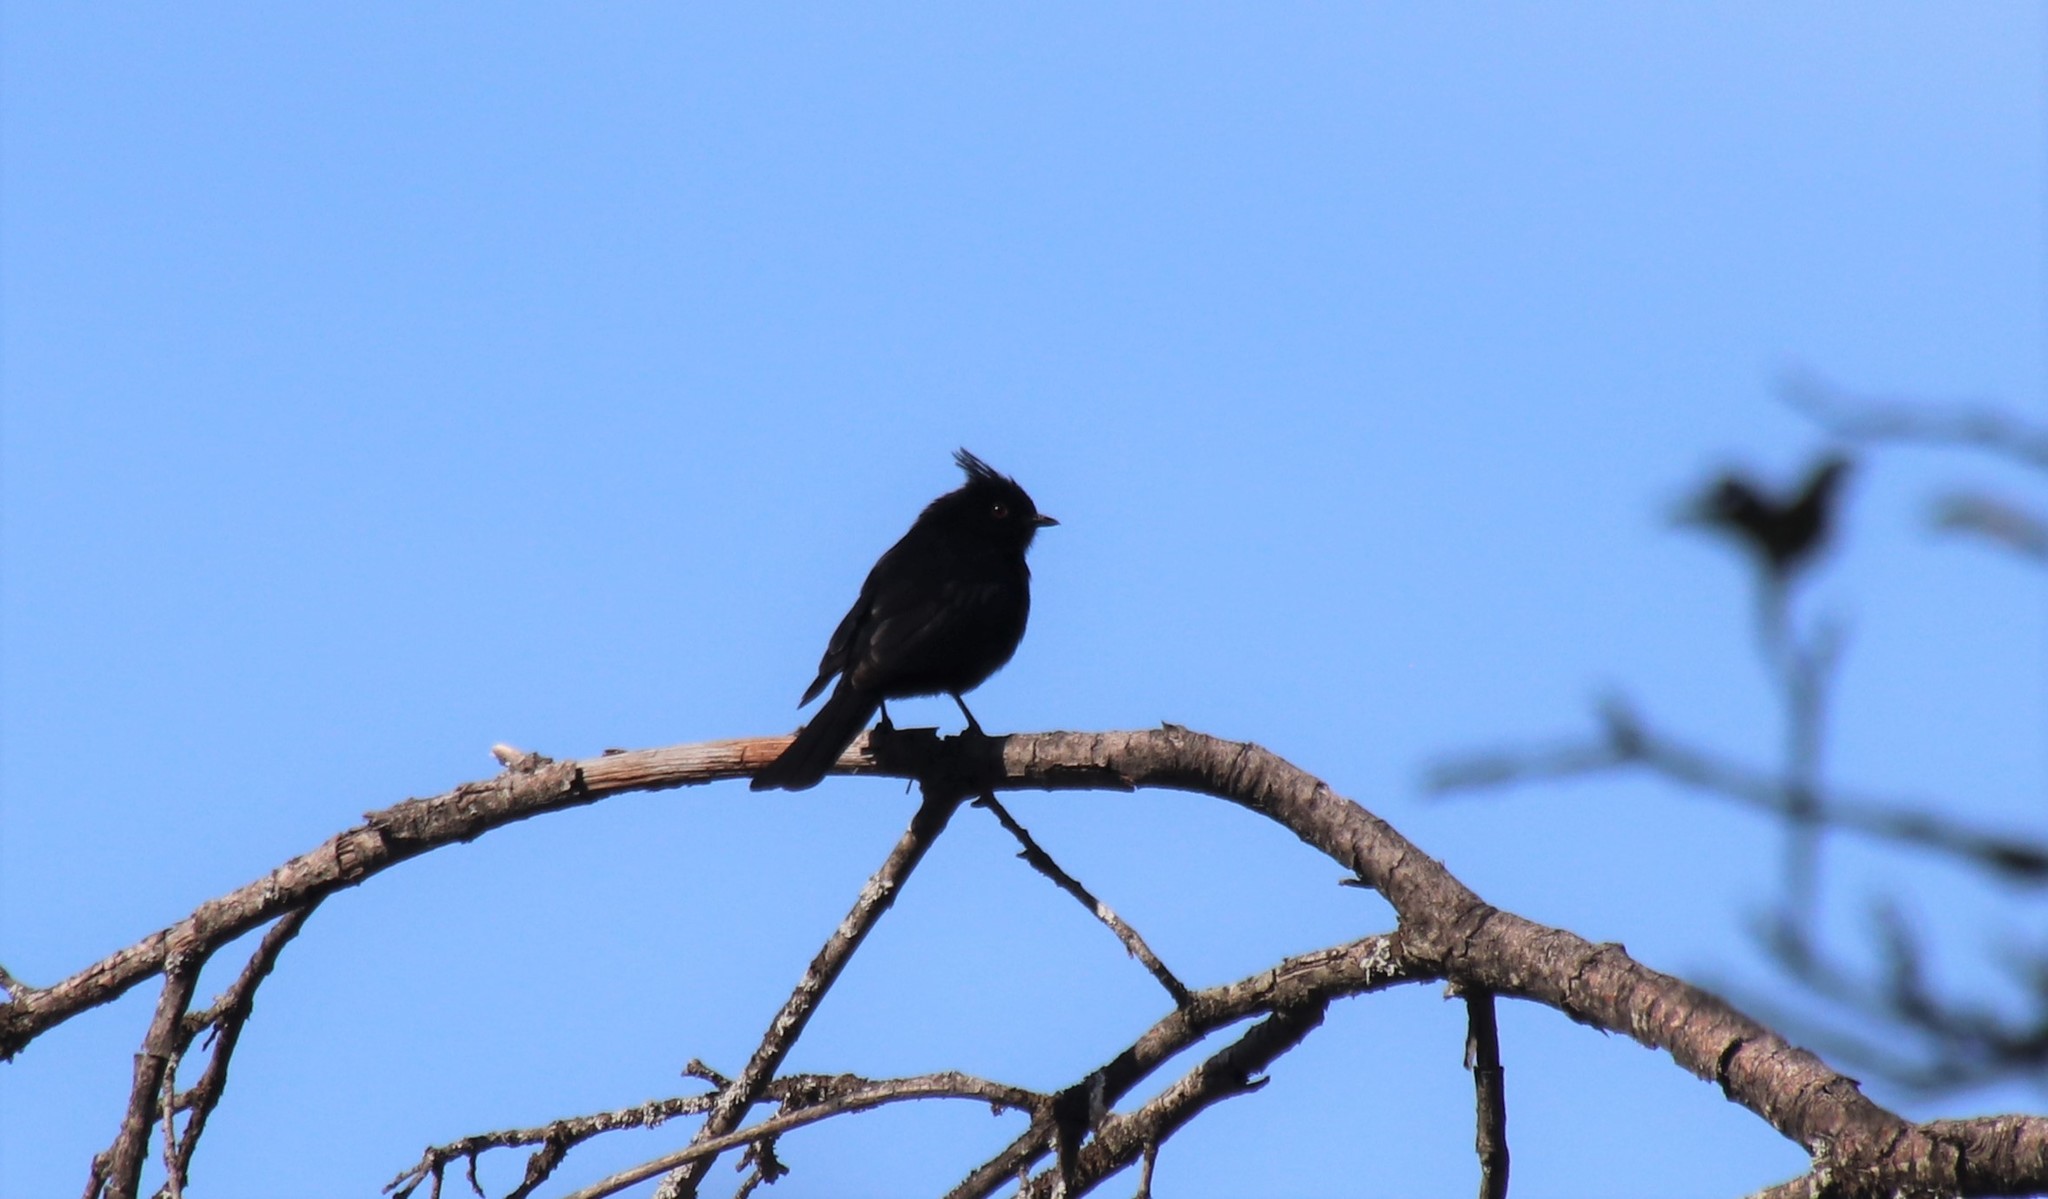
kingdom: Animalia
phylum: Chordata
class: Aves
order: Passeriformes
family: Ptilogonatidae
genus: Phainopepla
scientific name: Phainopepla nitens
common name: Phainopepla
